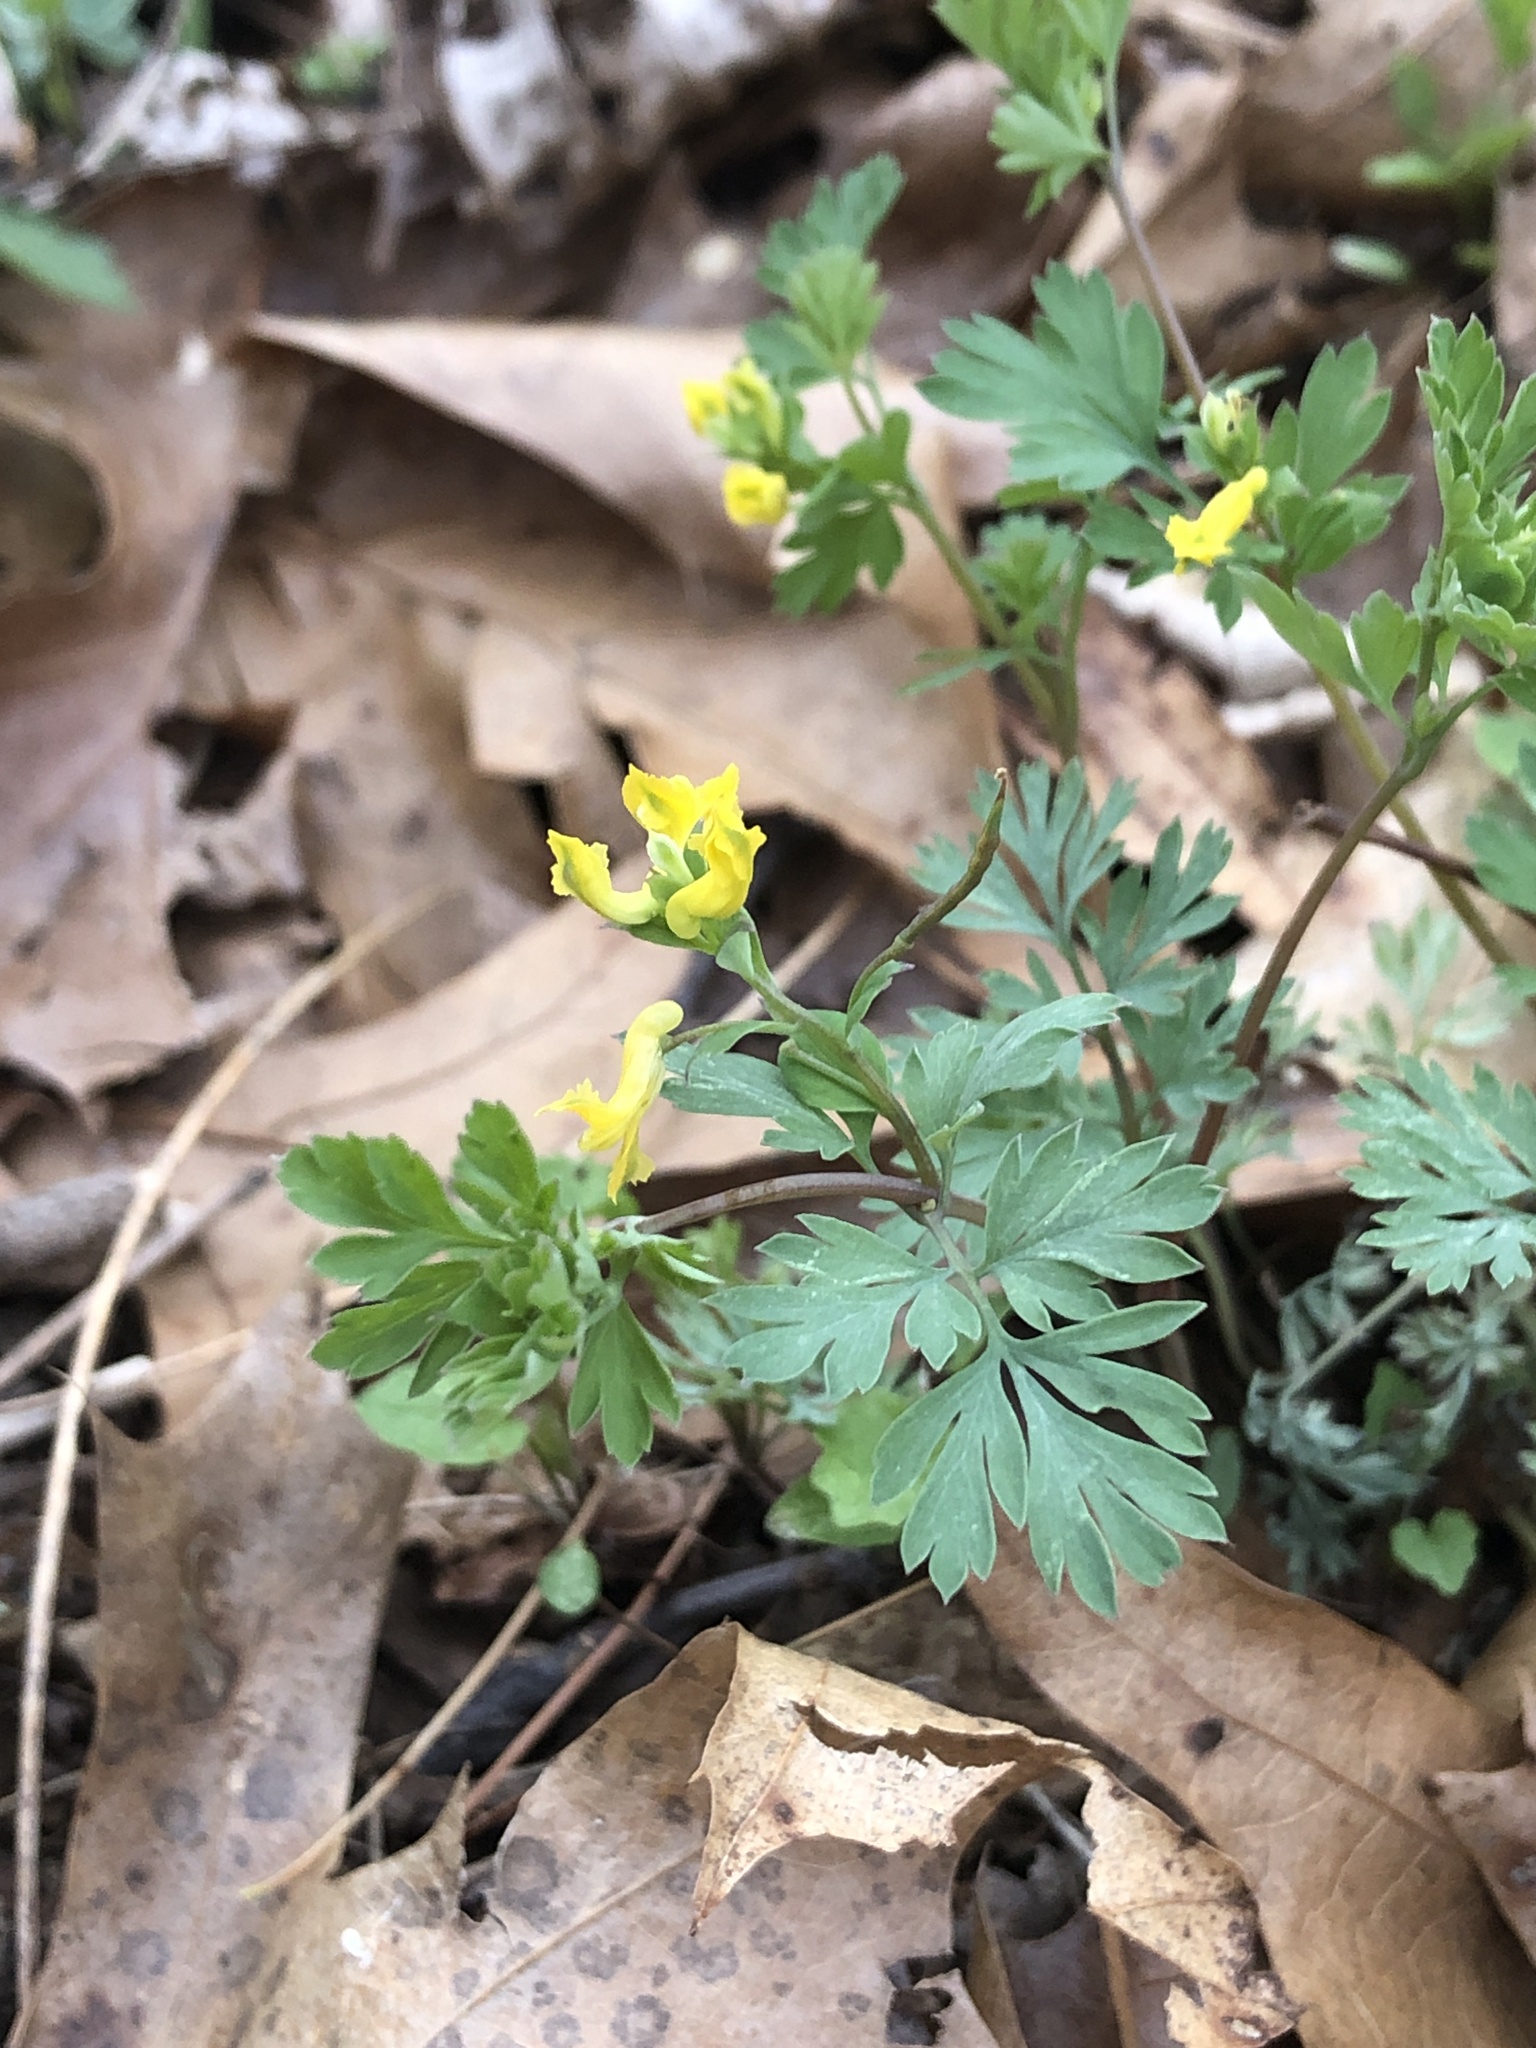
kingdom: Plantae
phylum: Tracheophyta
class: Magnoliopsida
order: Ranunculales
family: Papaveraceae
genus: Corydalis
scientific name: Corydalis flavula
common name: Yellow corydalis
